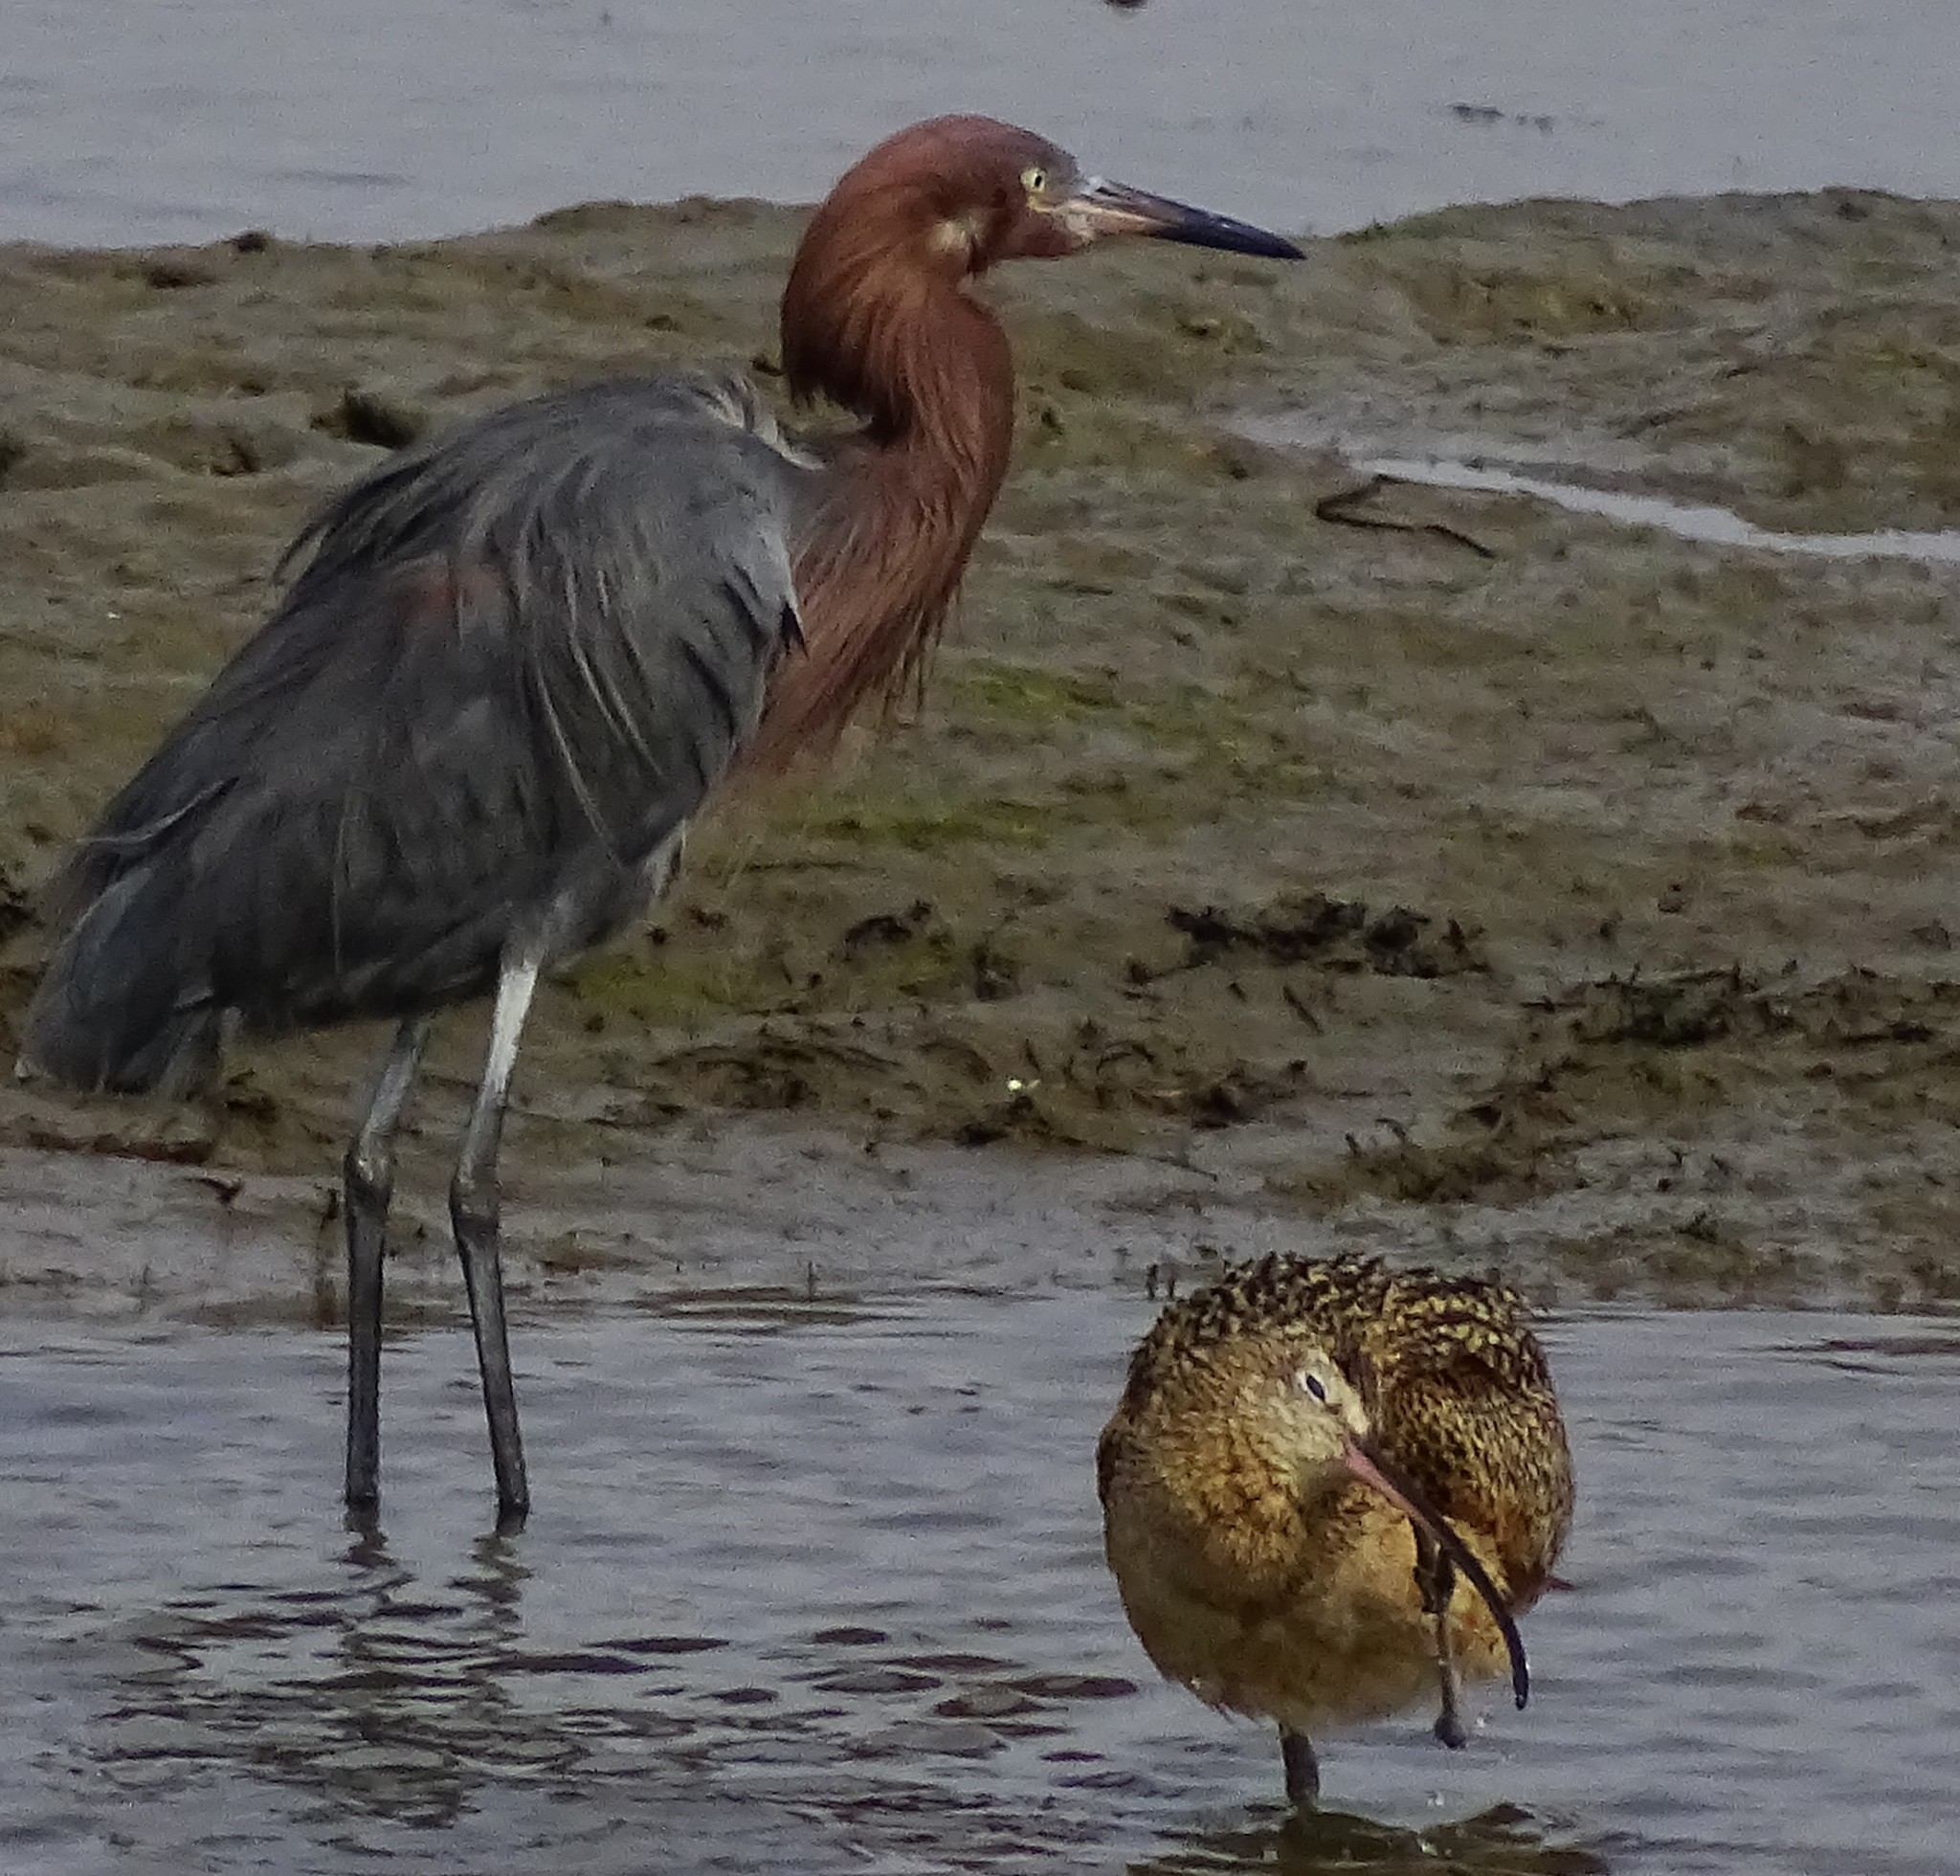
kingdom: Animalia
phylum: Chordata
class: Aves
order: Pelecaniformes
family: Ardeidae
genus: Egretta
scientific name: Egretta rufescens
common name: Reddish egret
